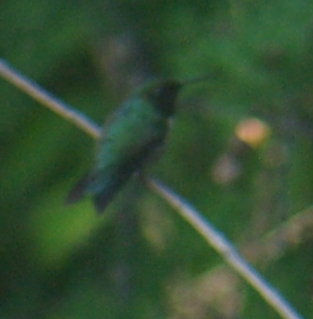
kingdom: Animalia
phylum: Chordata
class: Aves
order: Apodiformes
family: Trochilidae
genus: Archilochus
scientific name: Archilochus colubris
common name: Ruby-throated hummingbird
